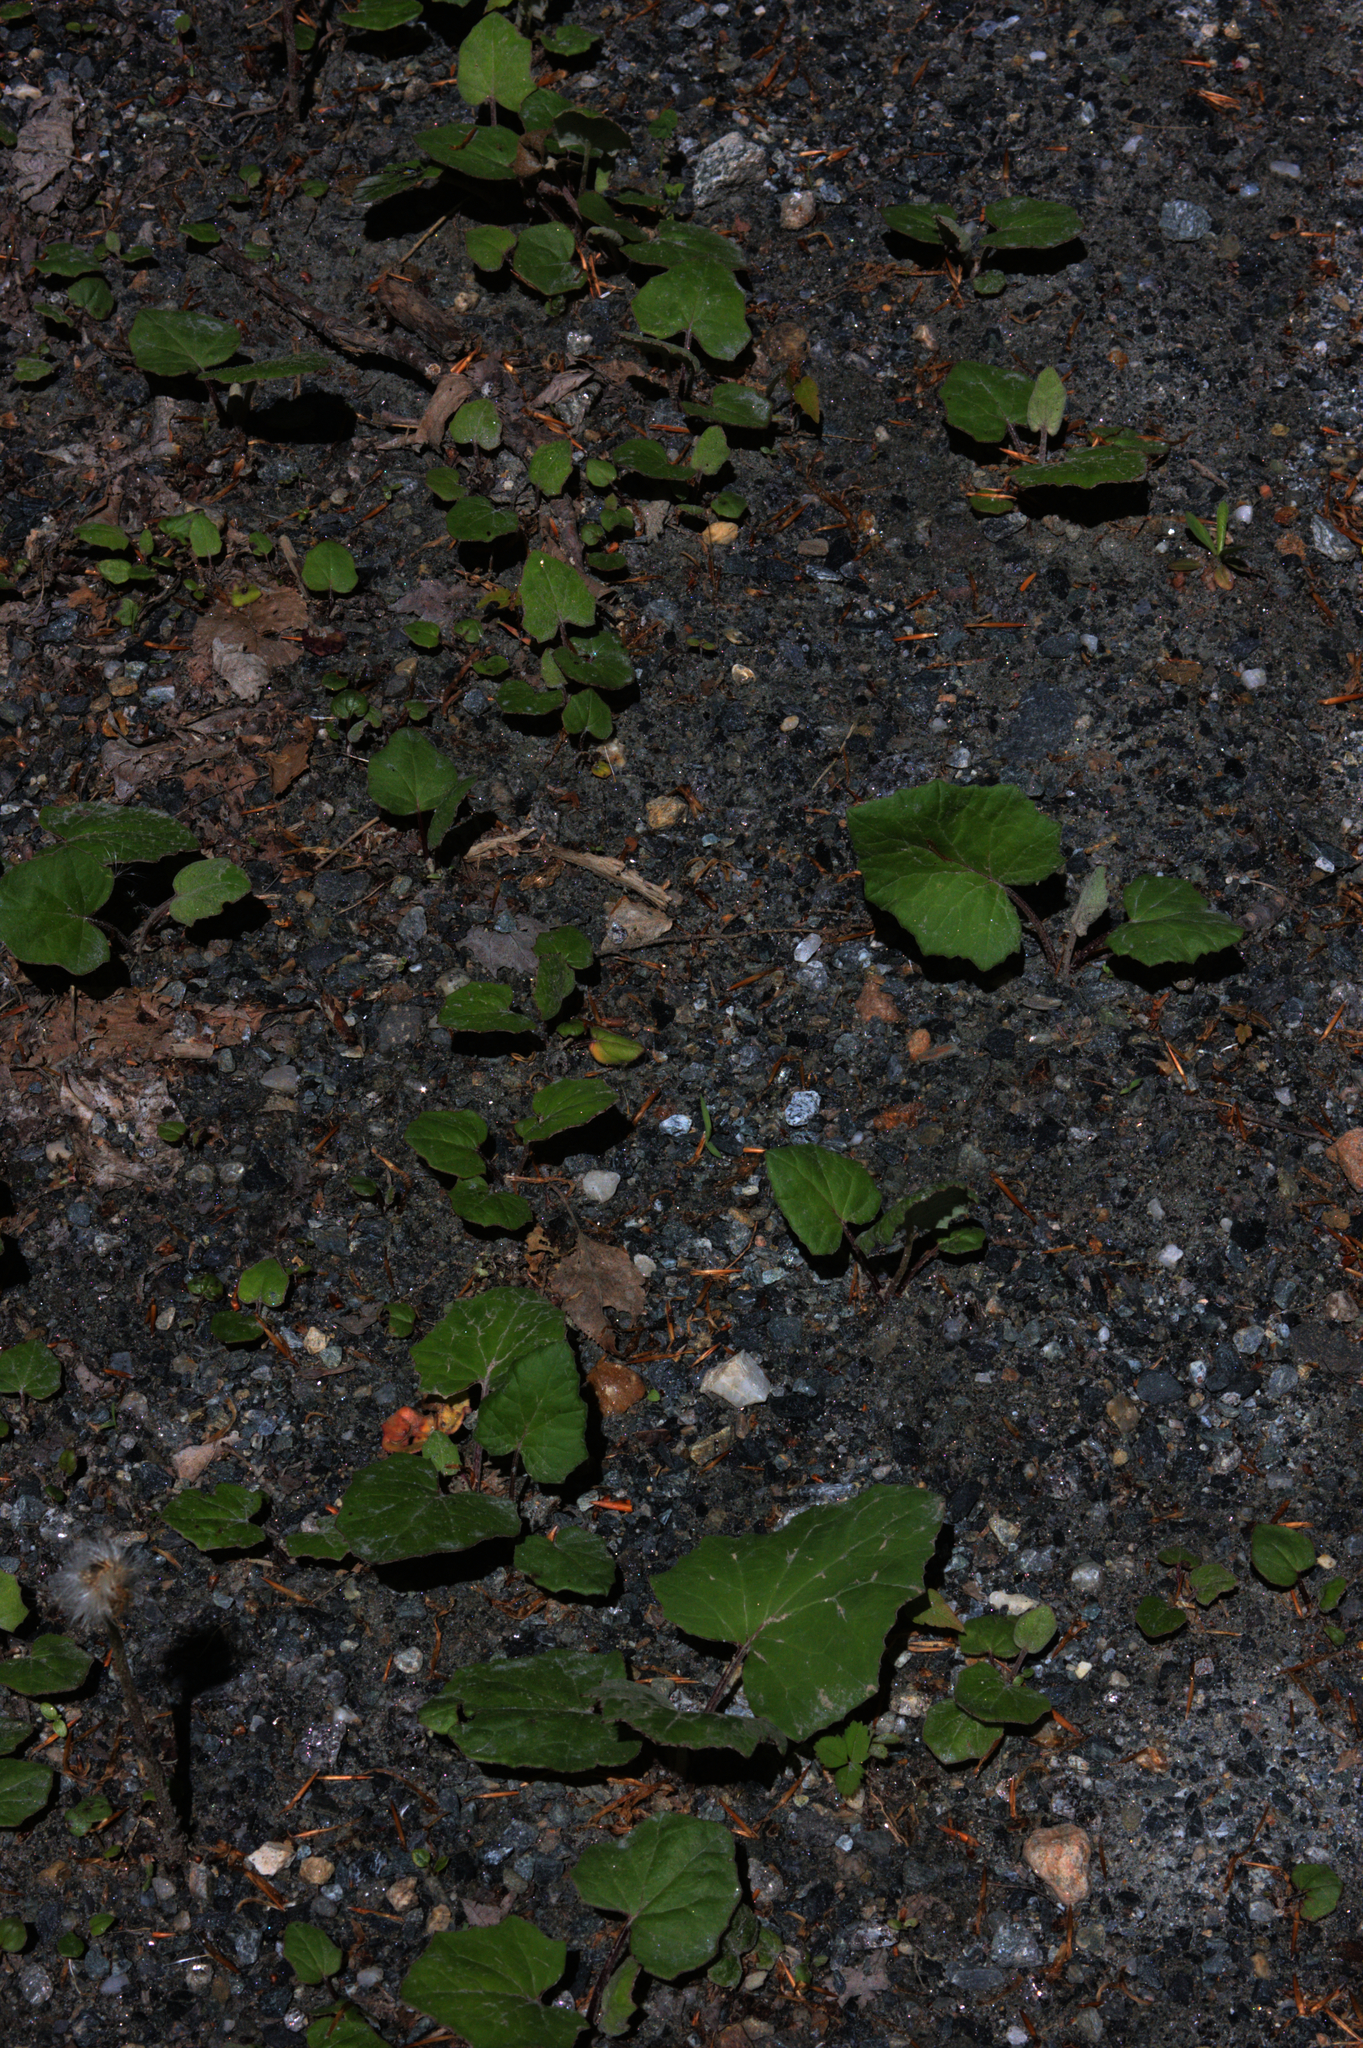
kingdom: Plantae
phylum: Tracheophyta
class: Magnoliopsida
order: Asterales
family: Asteraceae
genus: Tussilago
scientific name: Tussilago farfara
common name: Coltsfoot
